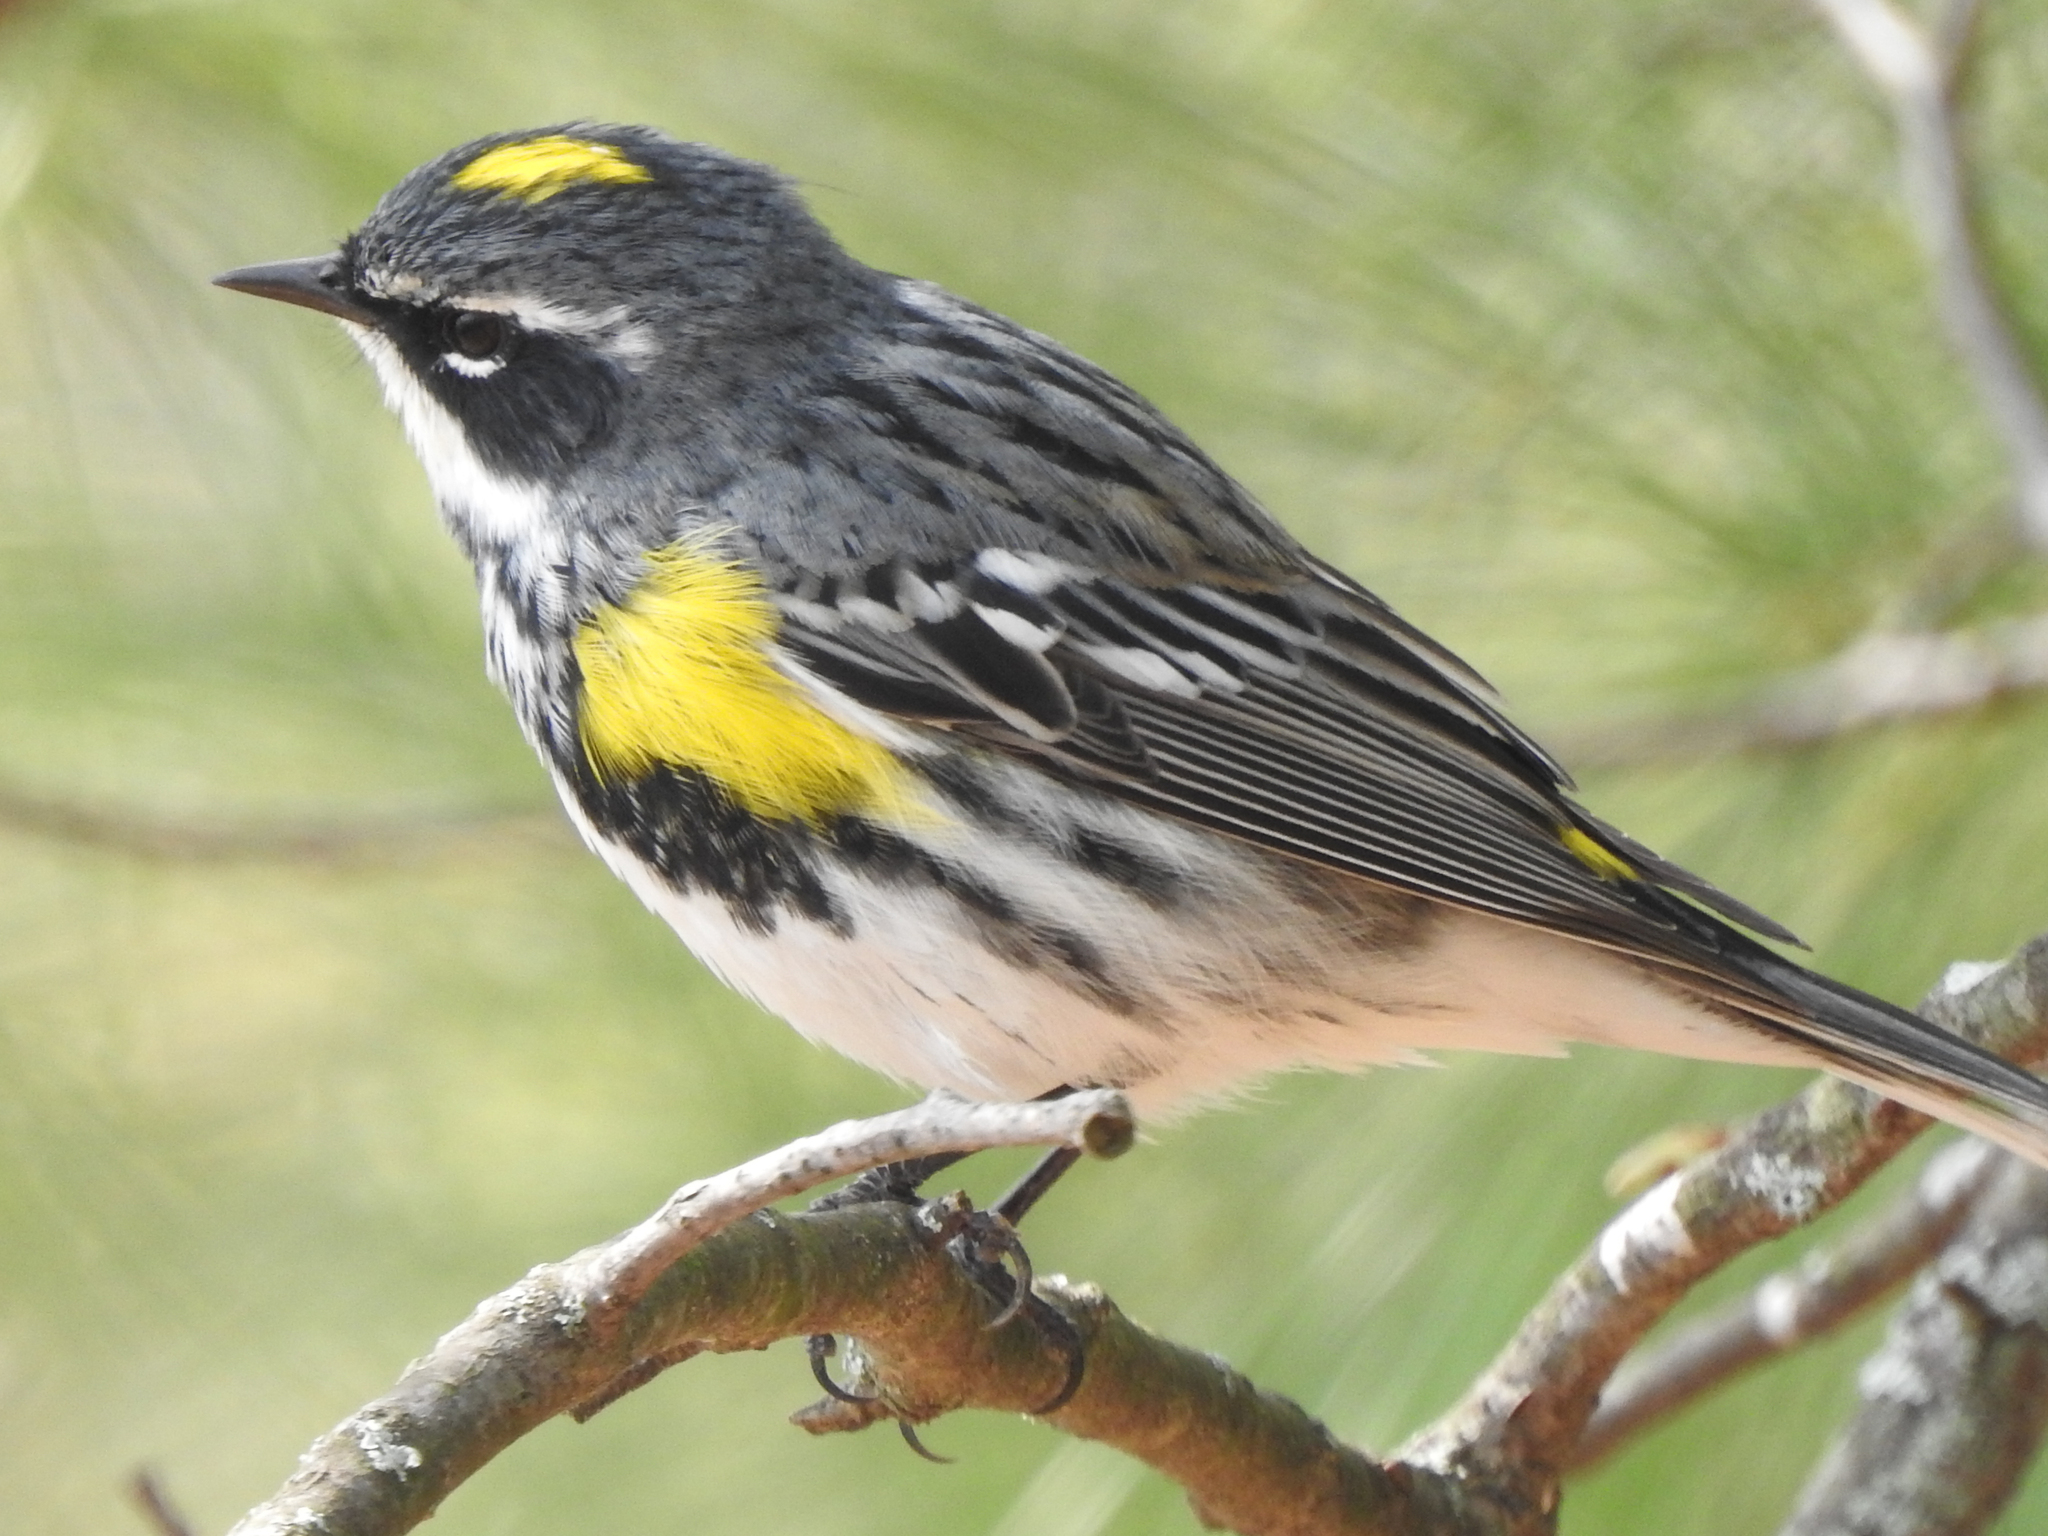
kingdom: Animalia
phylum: Chordata
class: Aves
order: Passeriformes
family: Parulidae
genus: Setophaga
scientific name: Setophaga coronata
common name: Myrtle warbler
